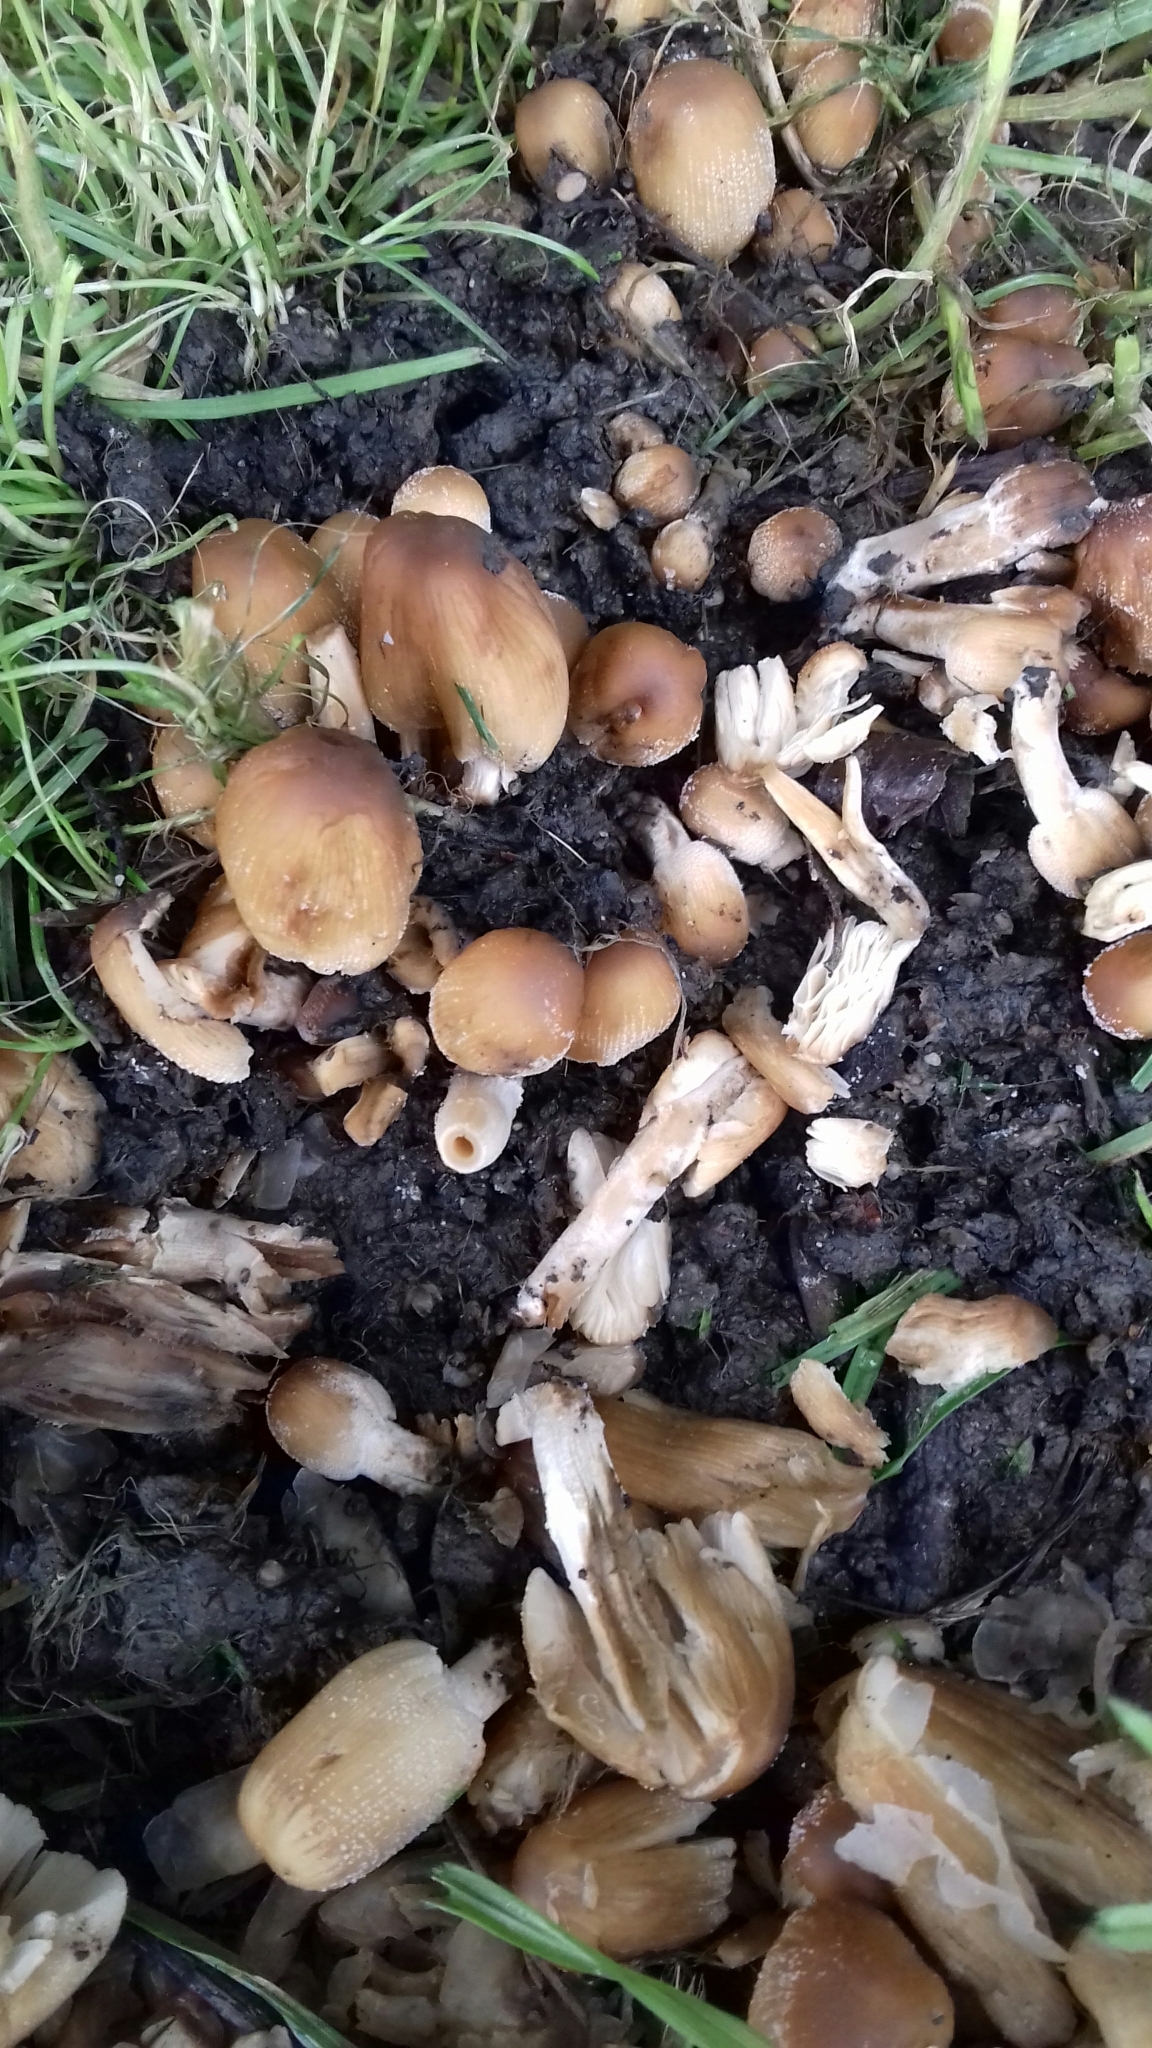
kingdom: Fungi
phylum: Basidiomycota
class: Agaricomycetes
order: Agaricales
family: Psathyrellaceae
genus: Coprinellus
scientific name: Coprinellus micaceus
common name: Glistening ink-cap
